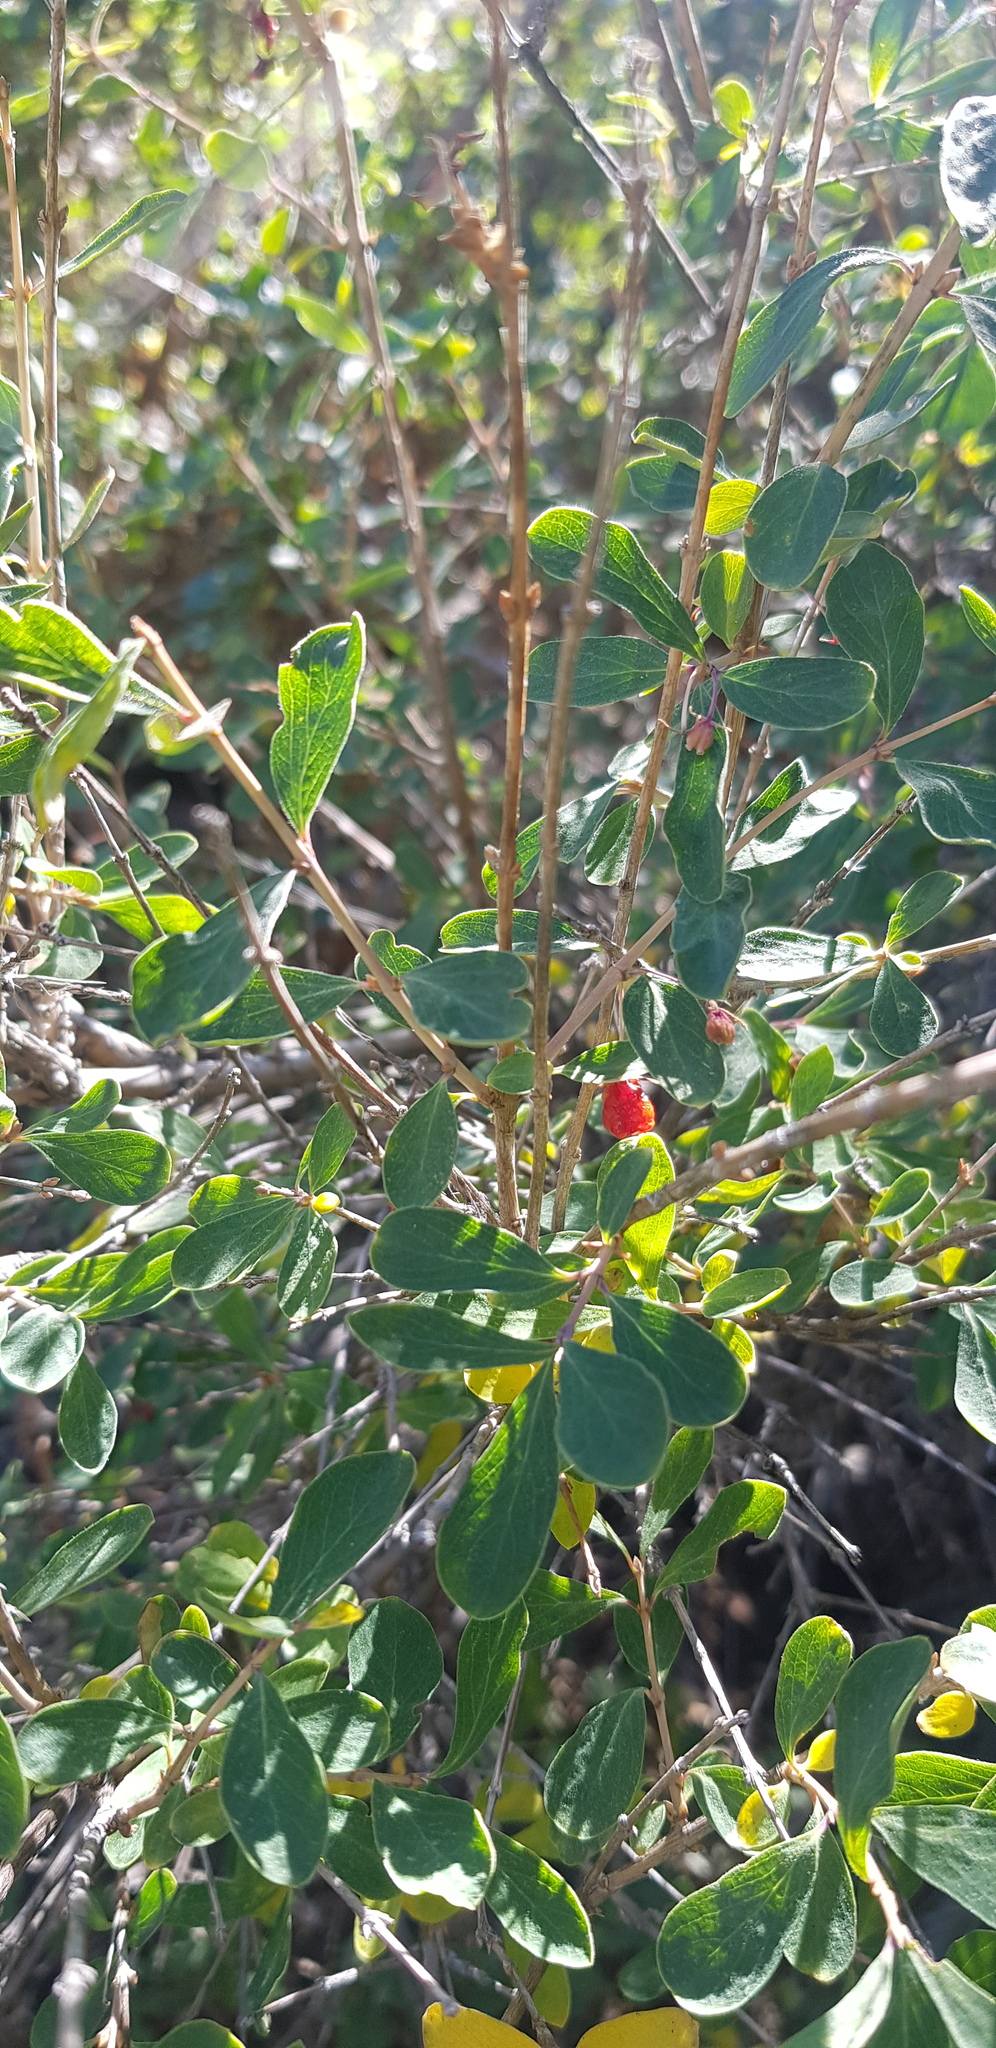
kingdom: Plantae
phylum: Tracheophyta
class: Magnoliopsida
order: Dipsacales
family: Caprifoliaceae
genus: Lonicera
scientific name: Lonicera microphylla
